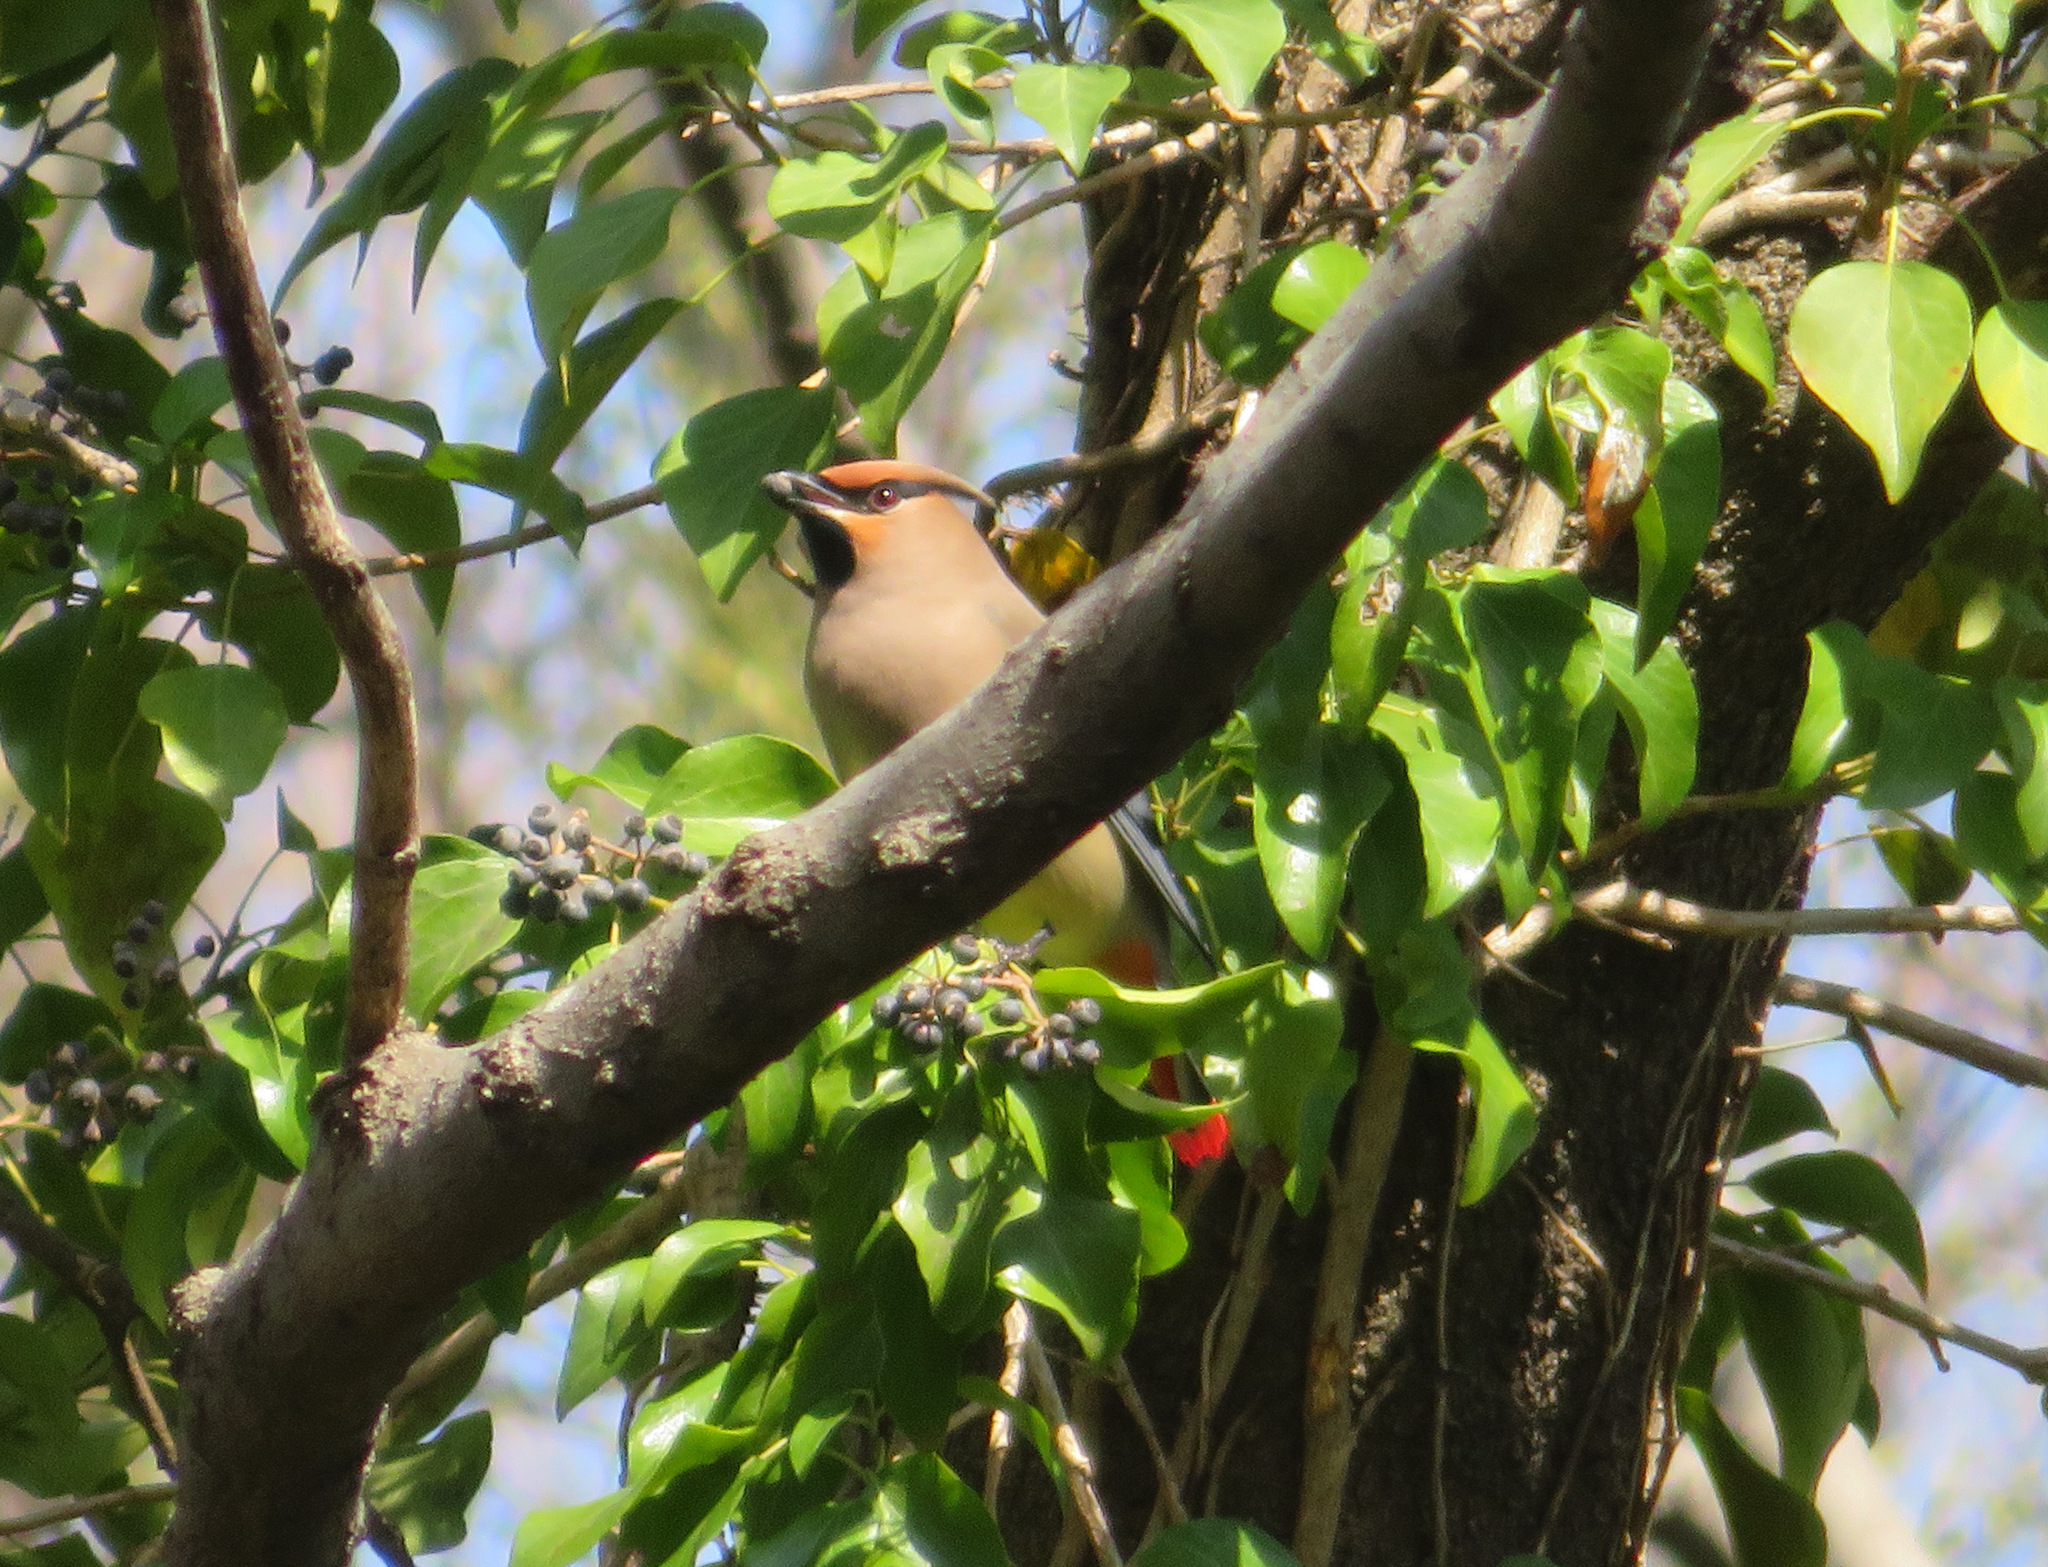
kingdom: Animalia
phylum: Chordata
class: Aves
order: Passeriformes
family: Bombycillidae
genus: Bombycilla
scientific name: Bombycilla japonica
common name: Japanese waxwing
